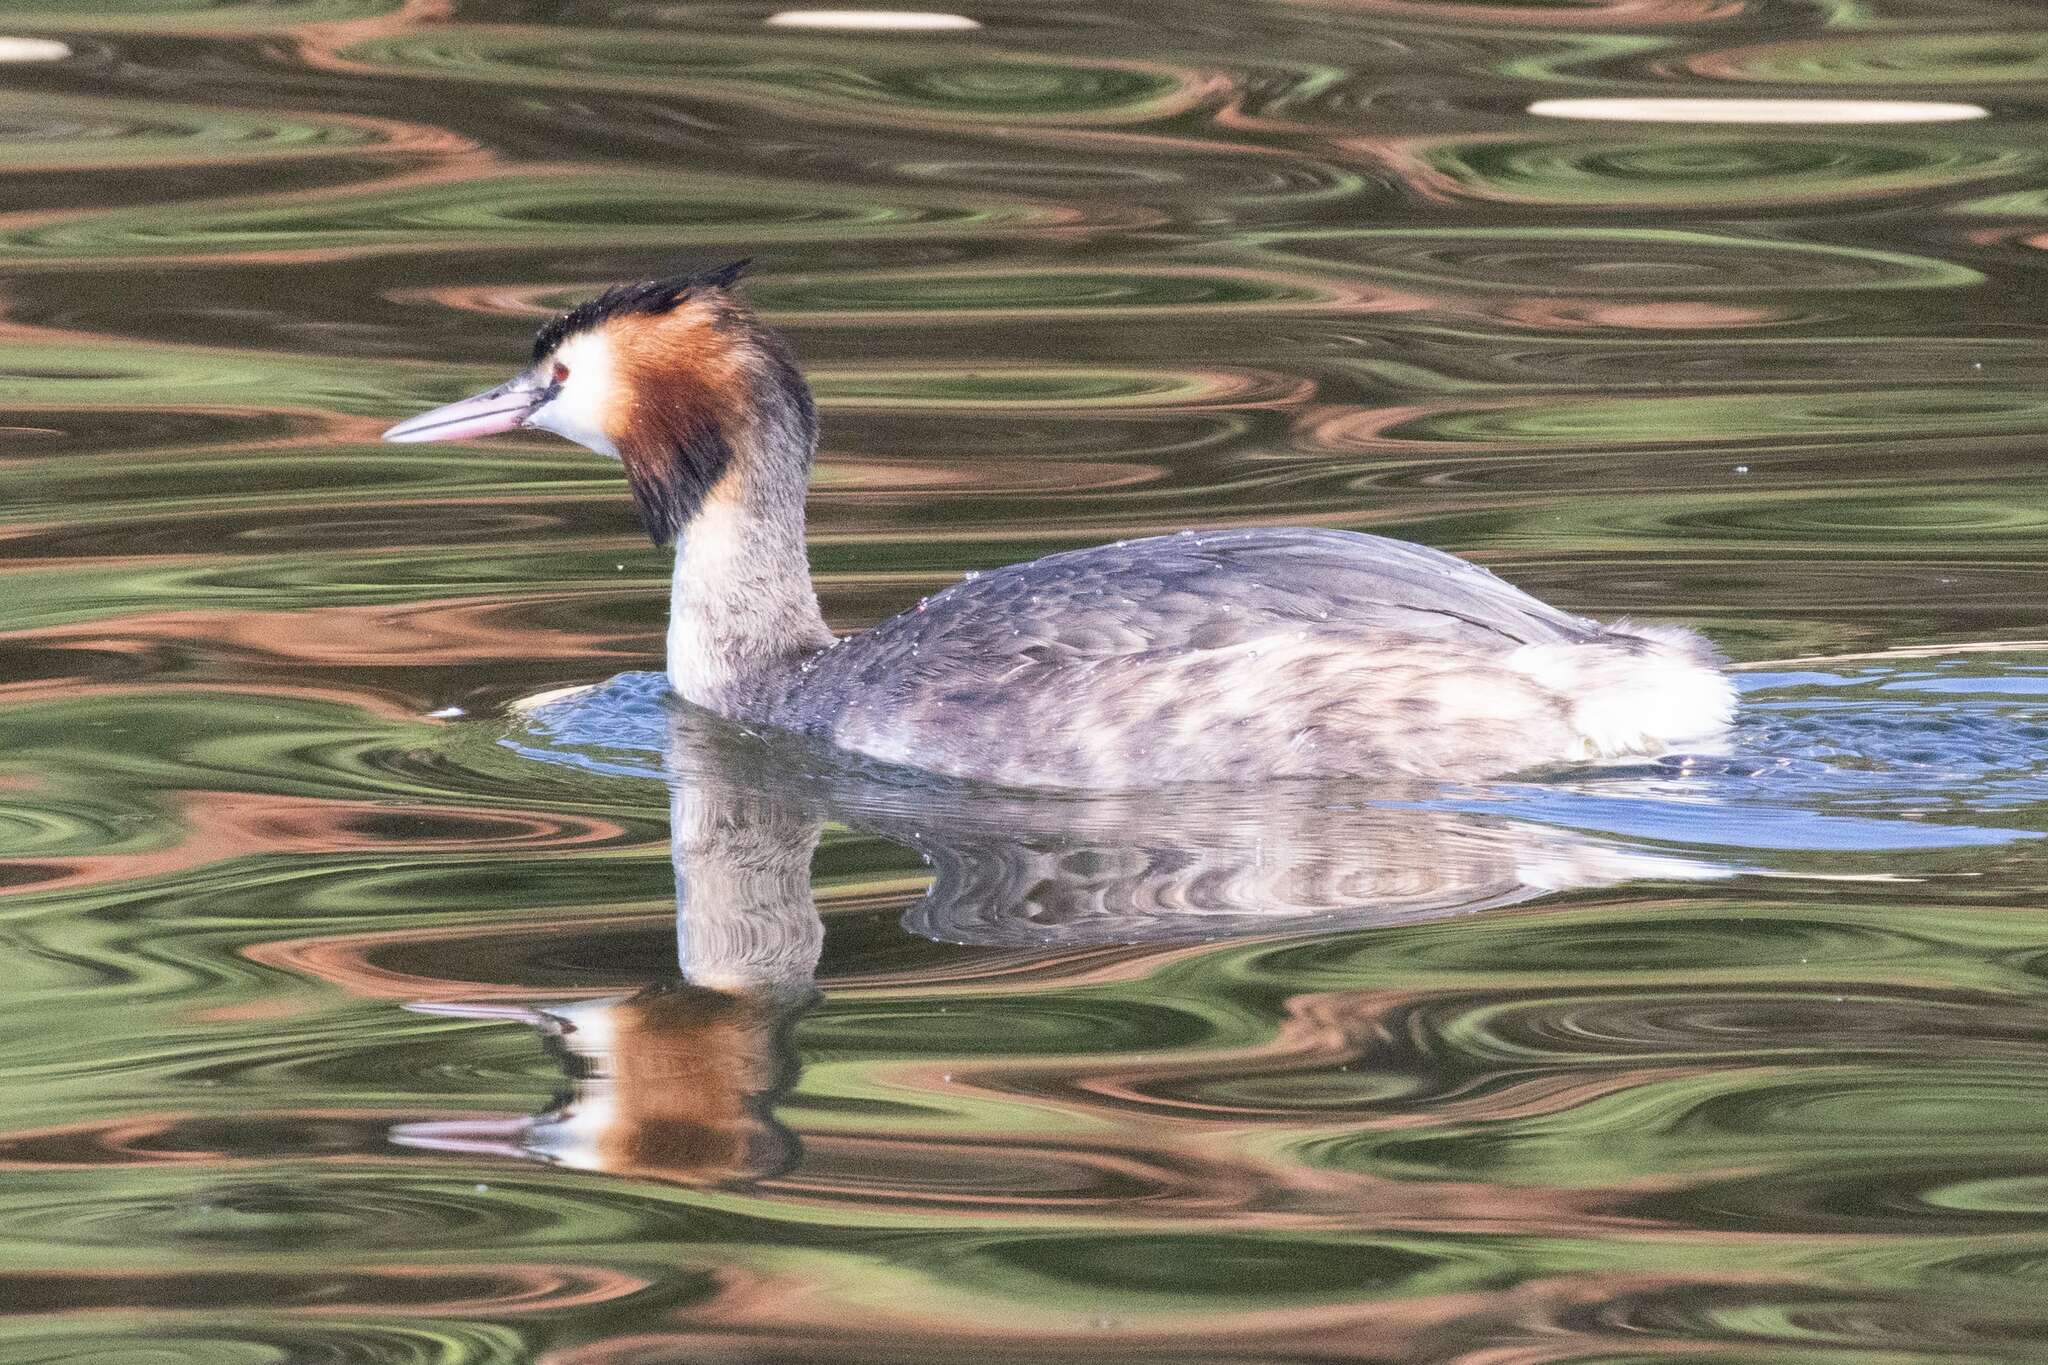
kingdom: Animalia
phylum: Chordata
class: Aves
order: Podicipediformes
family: Podicipedidae
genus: Podiceps
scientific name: Podiceps cristatus
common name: Great crested grebe
